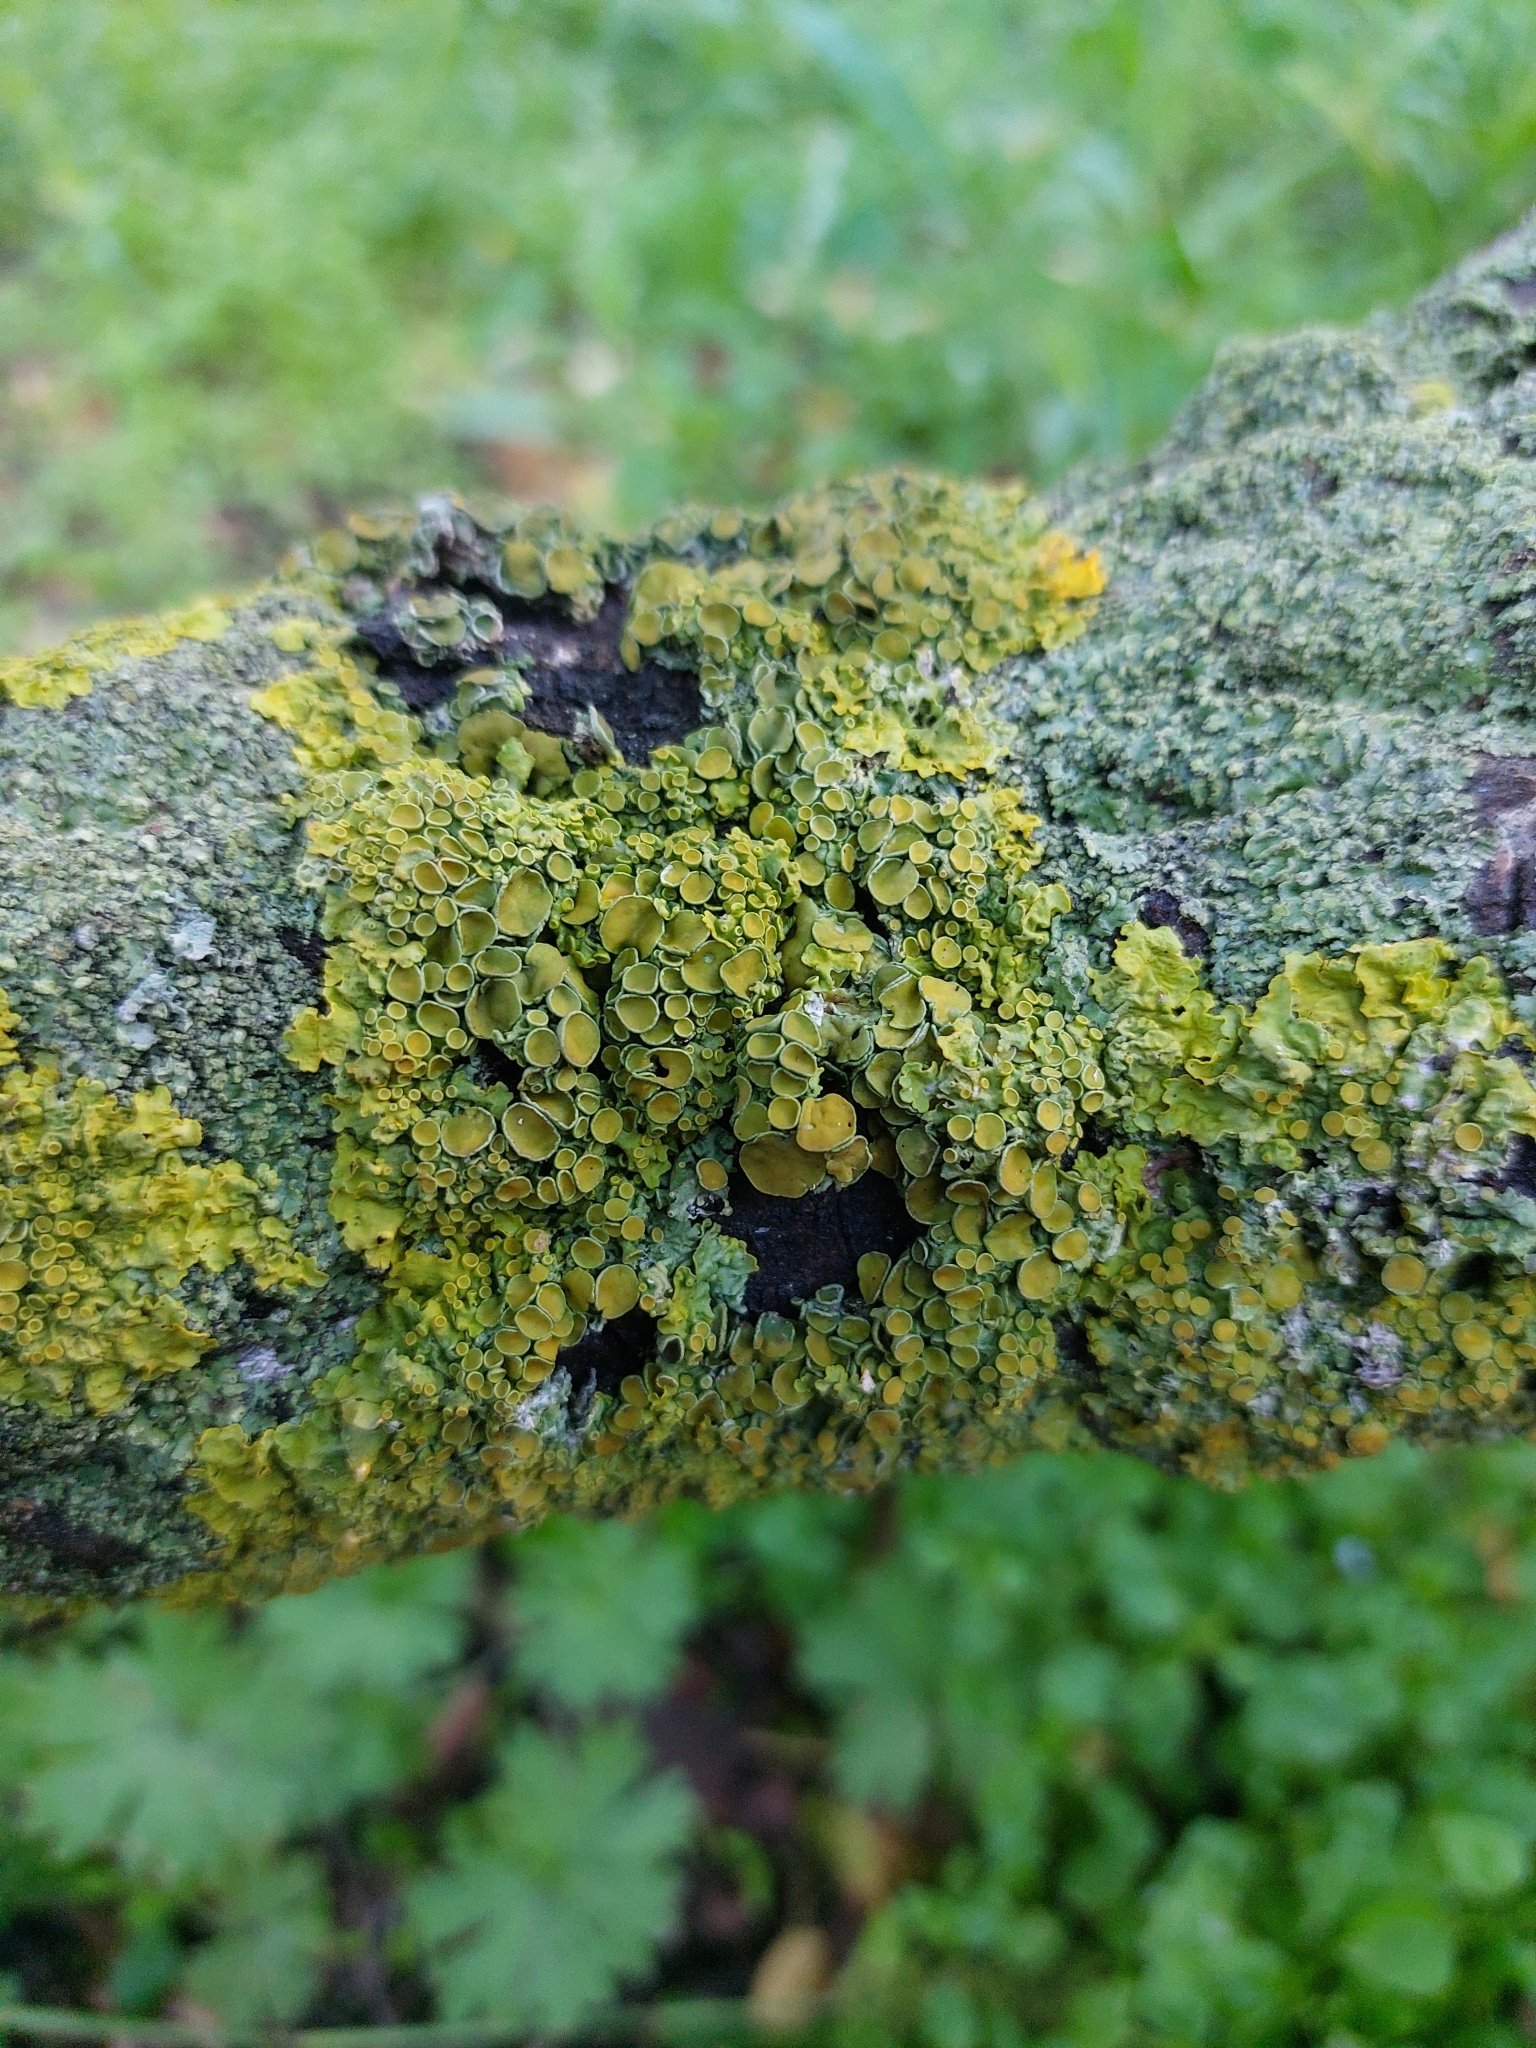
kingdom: Fungi
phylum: Ascomycota
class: Lecanoromycetes
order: Teloschistales
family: Teloschistaceae
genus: Xanthoria
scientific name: Xanthoria parietina
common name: Common orange lichen
